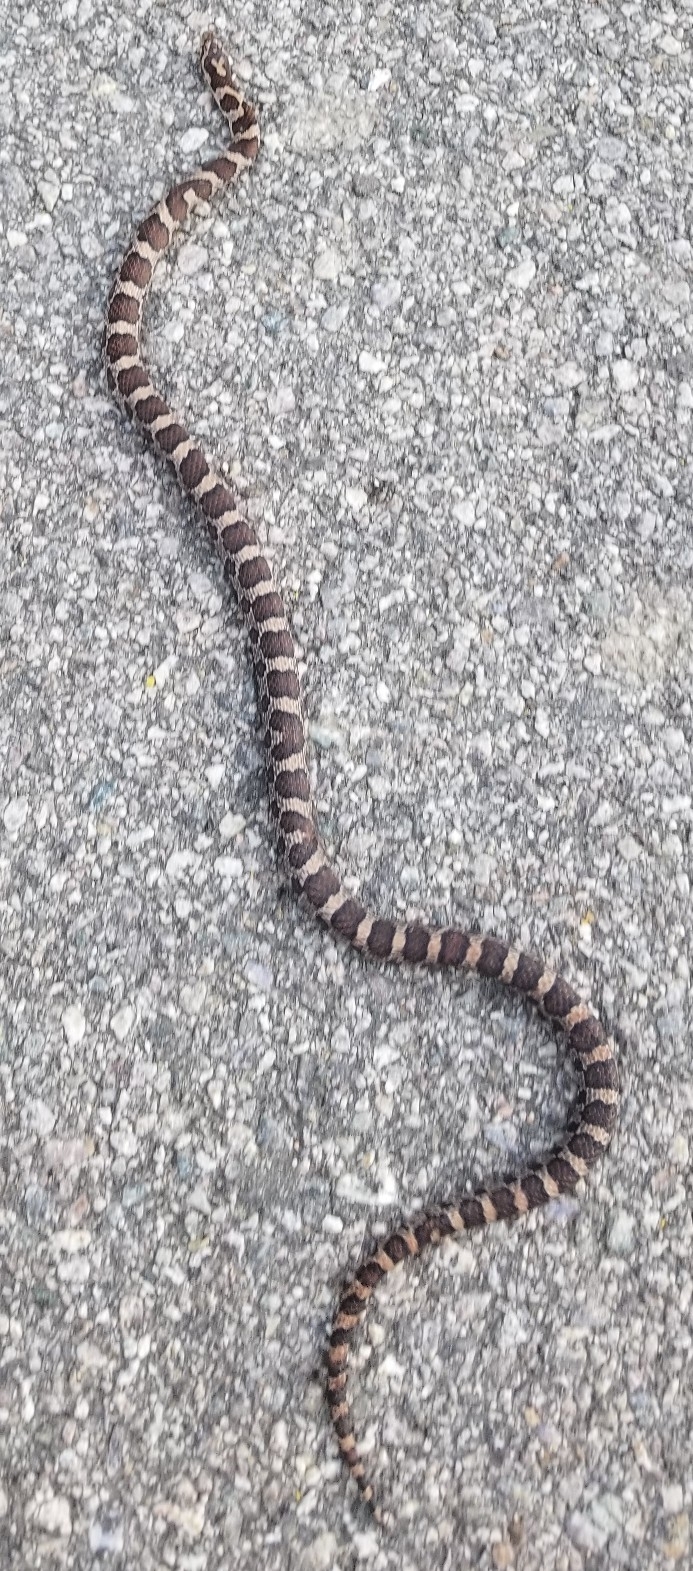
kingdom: Animalia
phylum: Chordata
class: Squamata
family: Colubridae
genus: Lampropeltis
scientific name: Lampropeltis triangulum
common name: Eastern milksnake
